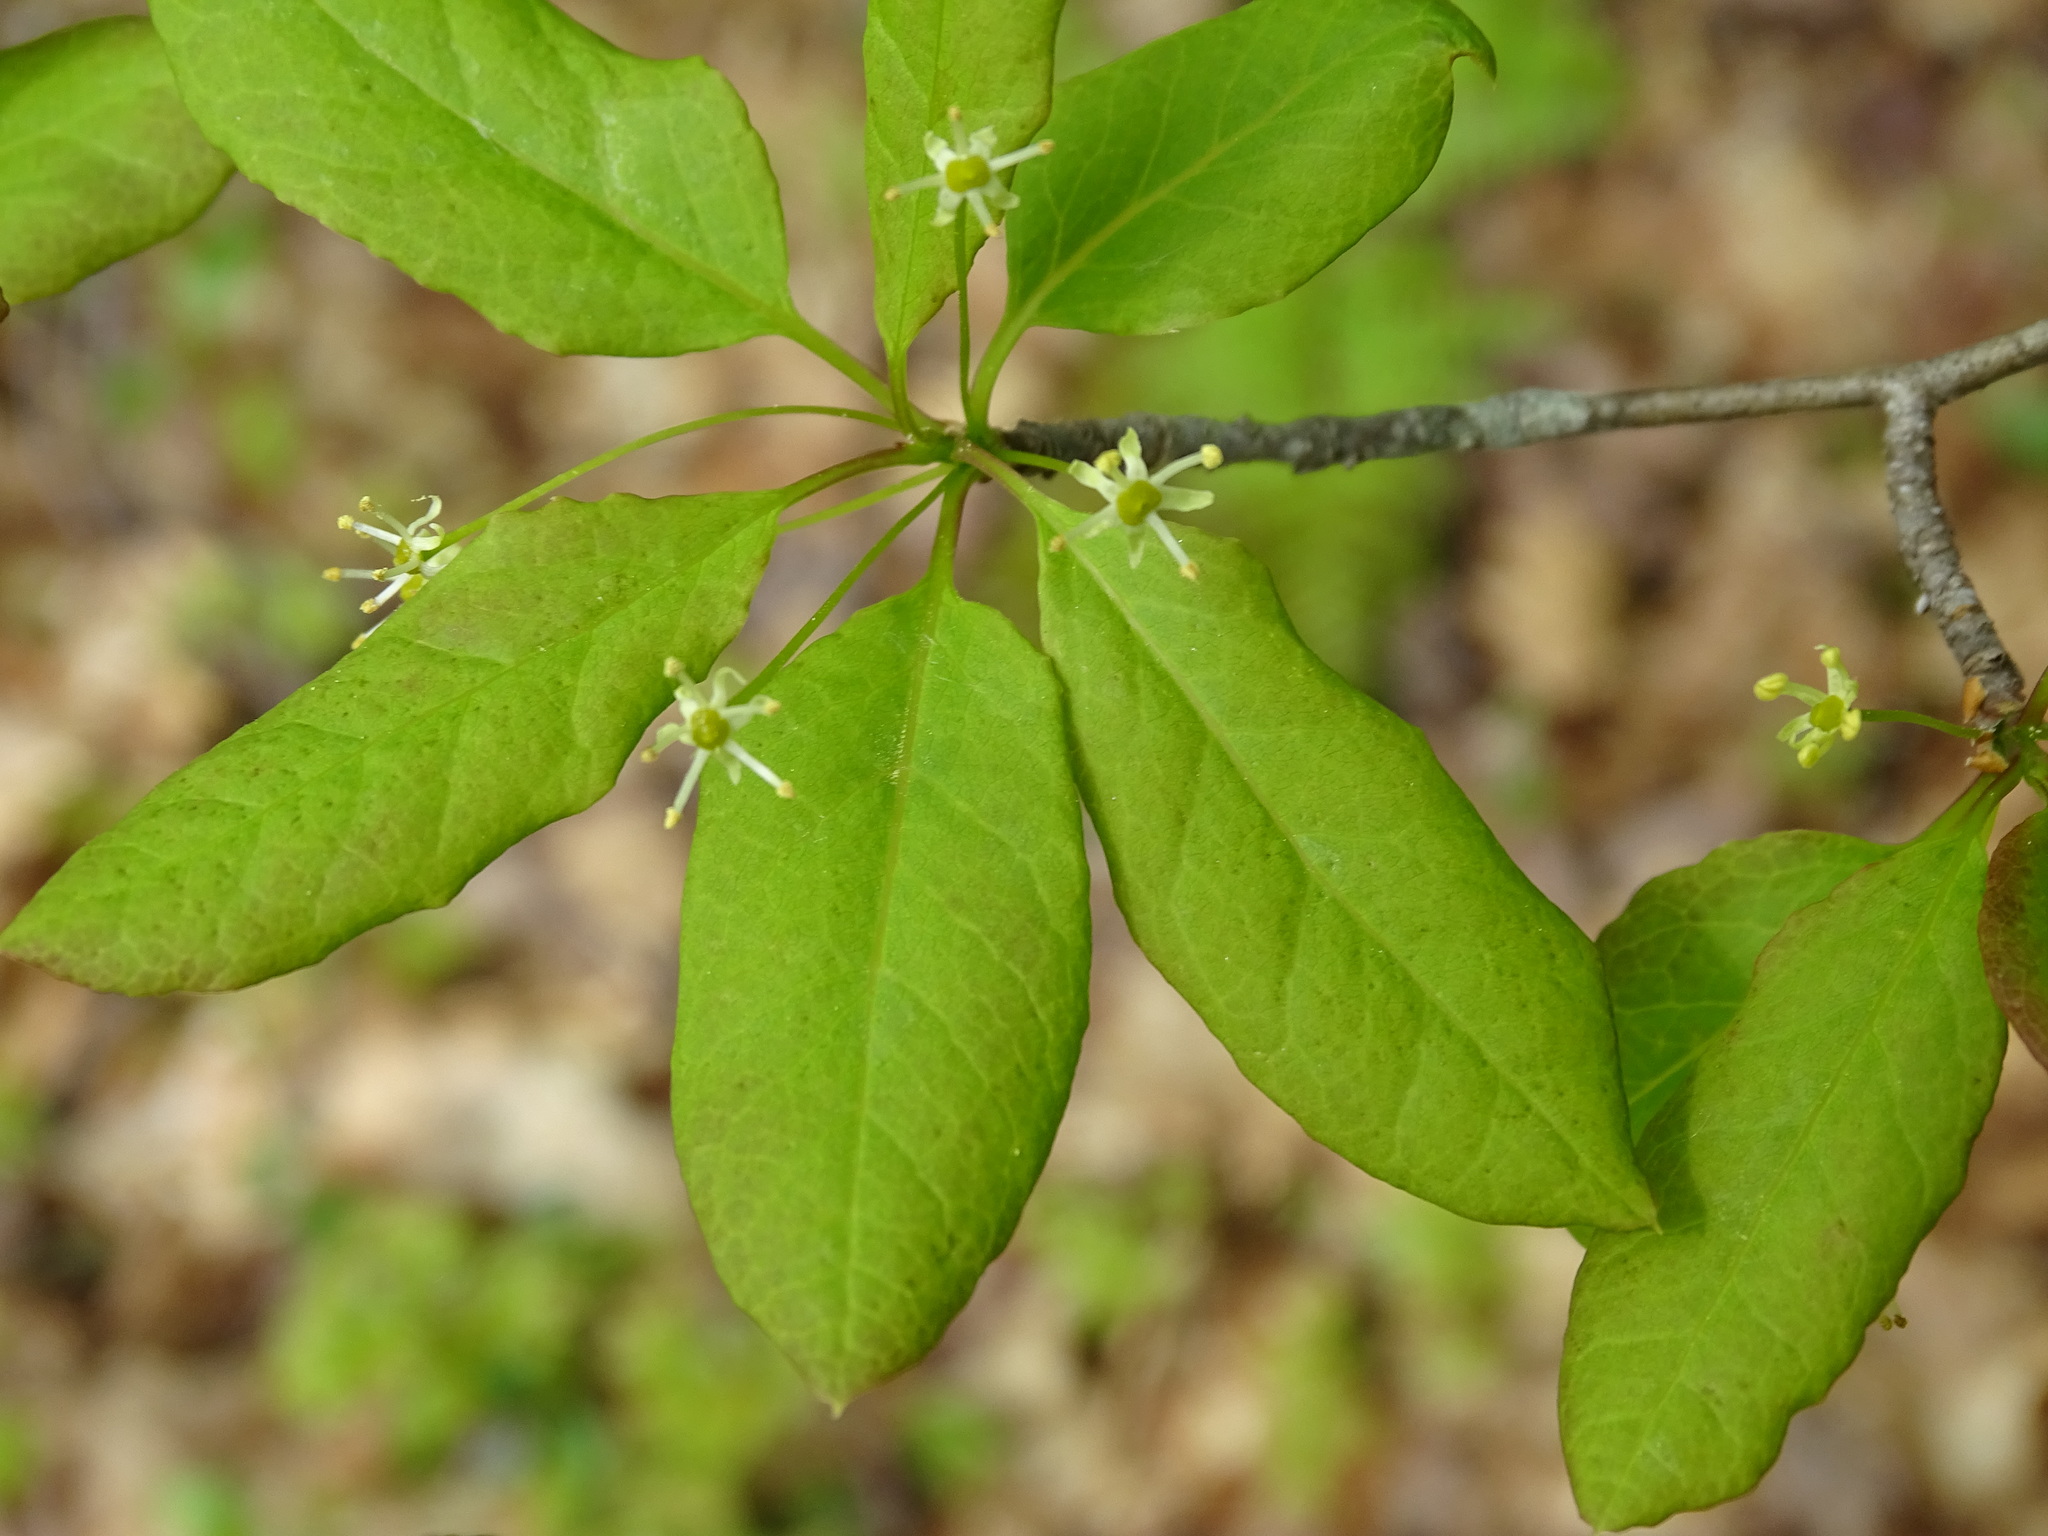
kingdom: Plantae
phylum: Tracheophyta
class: Magnoliopsida
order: Aquifoliales
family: Aquifoliaceae
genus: Ilex
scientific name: Ilex mucronata
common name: Catberry
